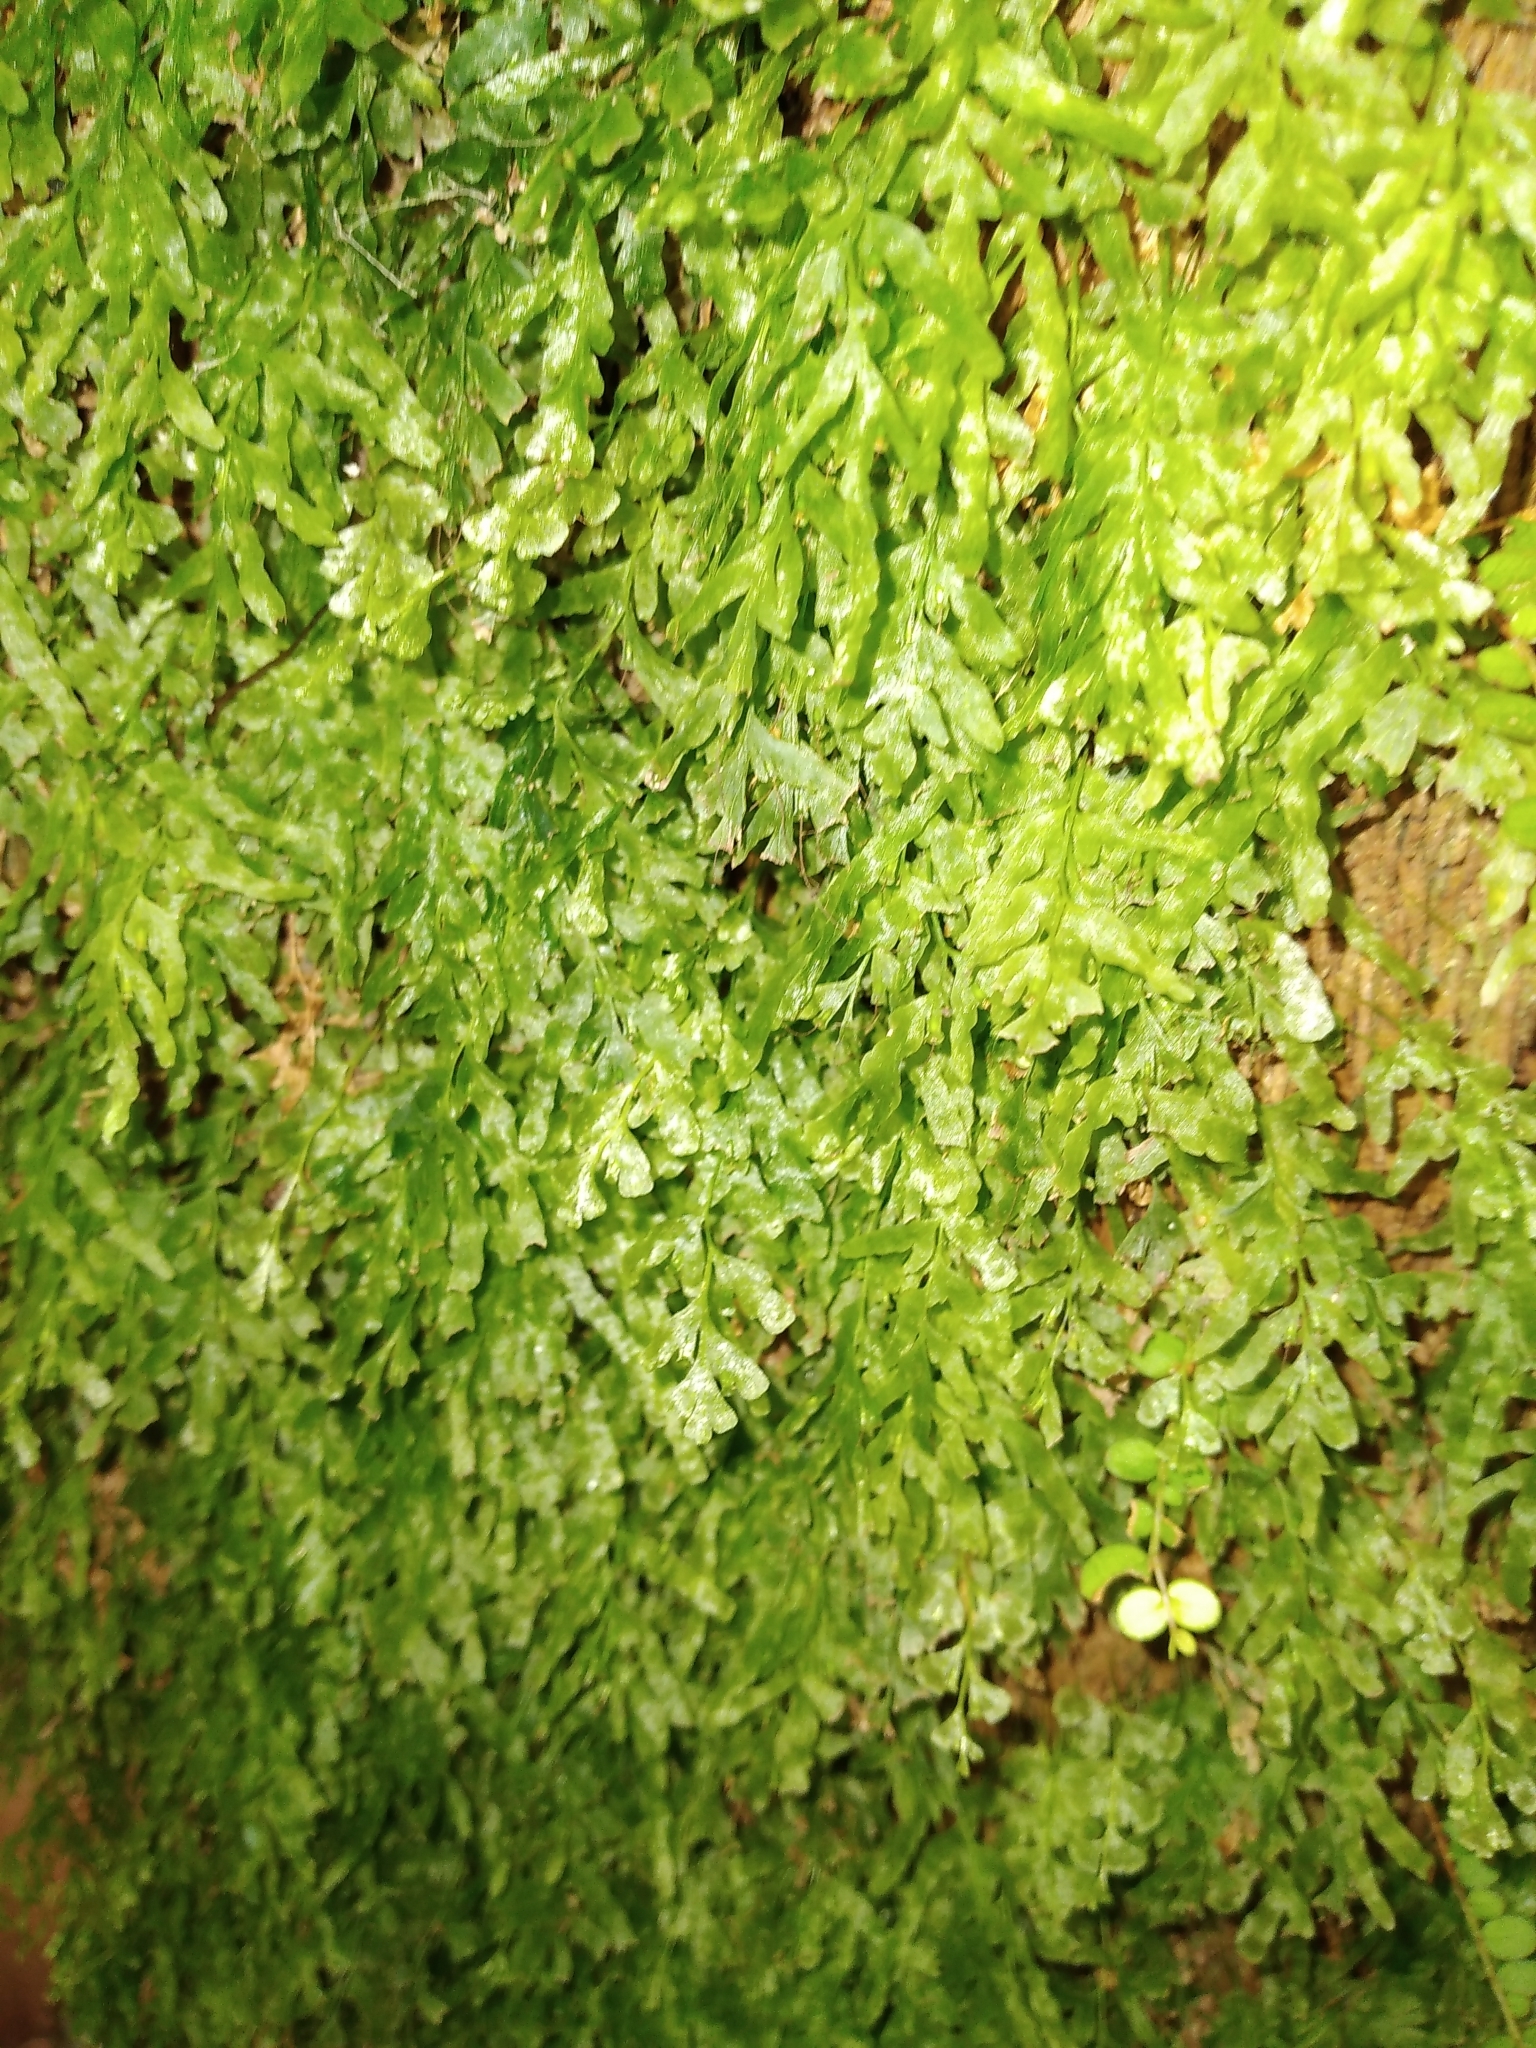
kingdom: Plantae
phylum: Tracheophyta
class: Polypodiopsida
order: Hymenophyllales
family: Hymenophyllaceae
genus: Polyphlebium
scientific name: Polyphlebium venosum
